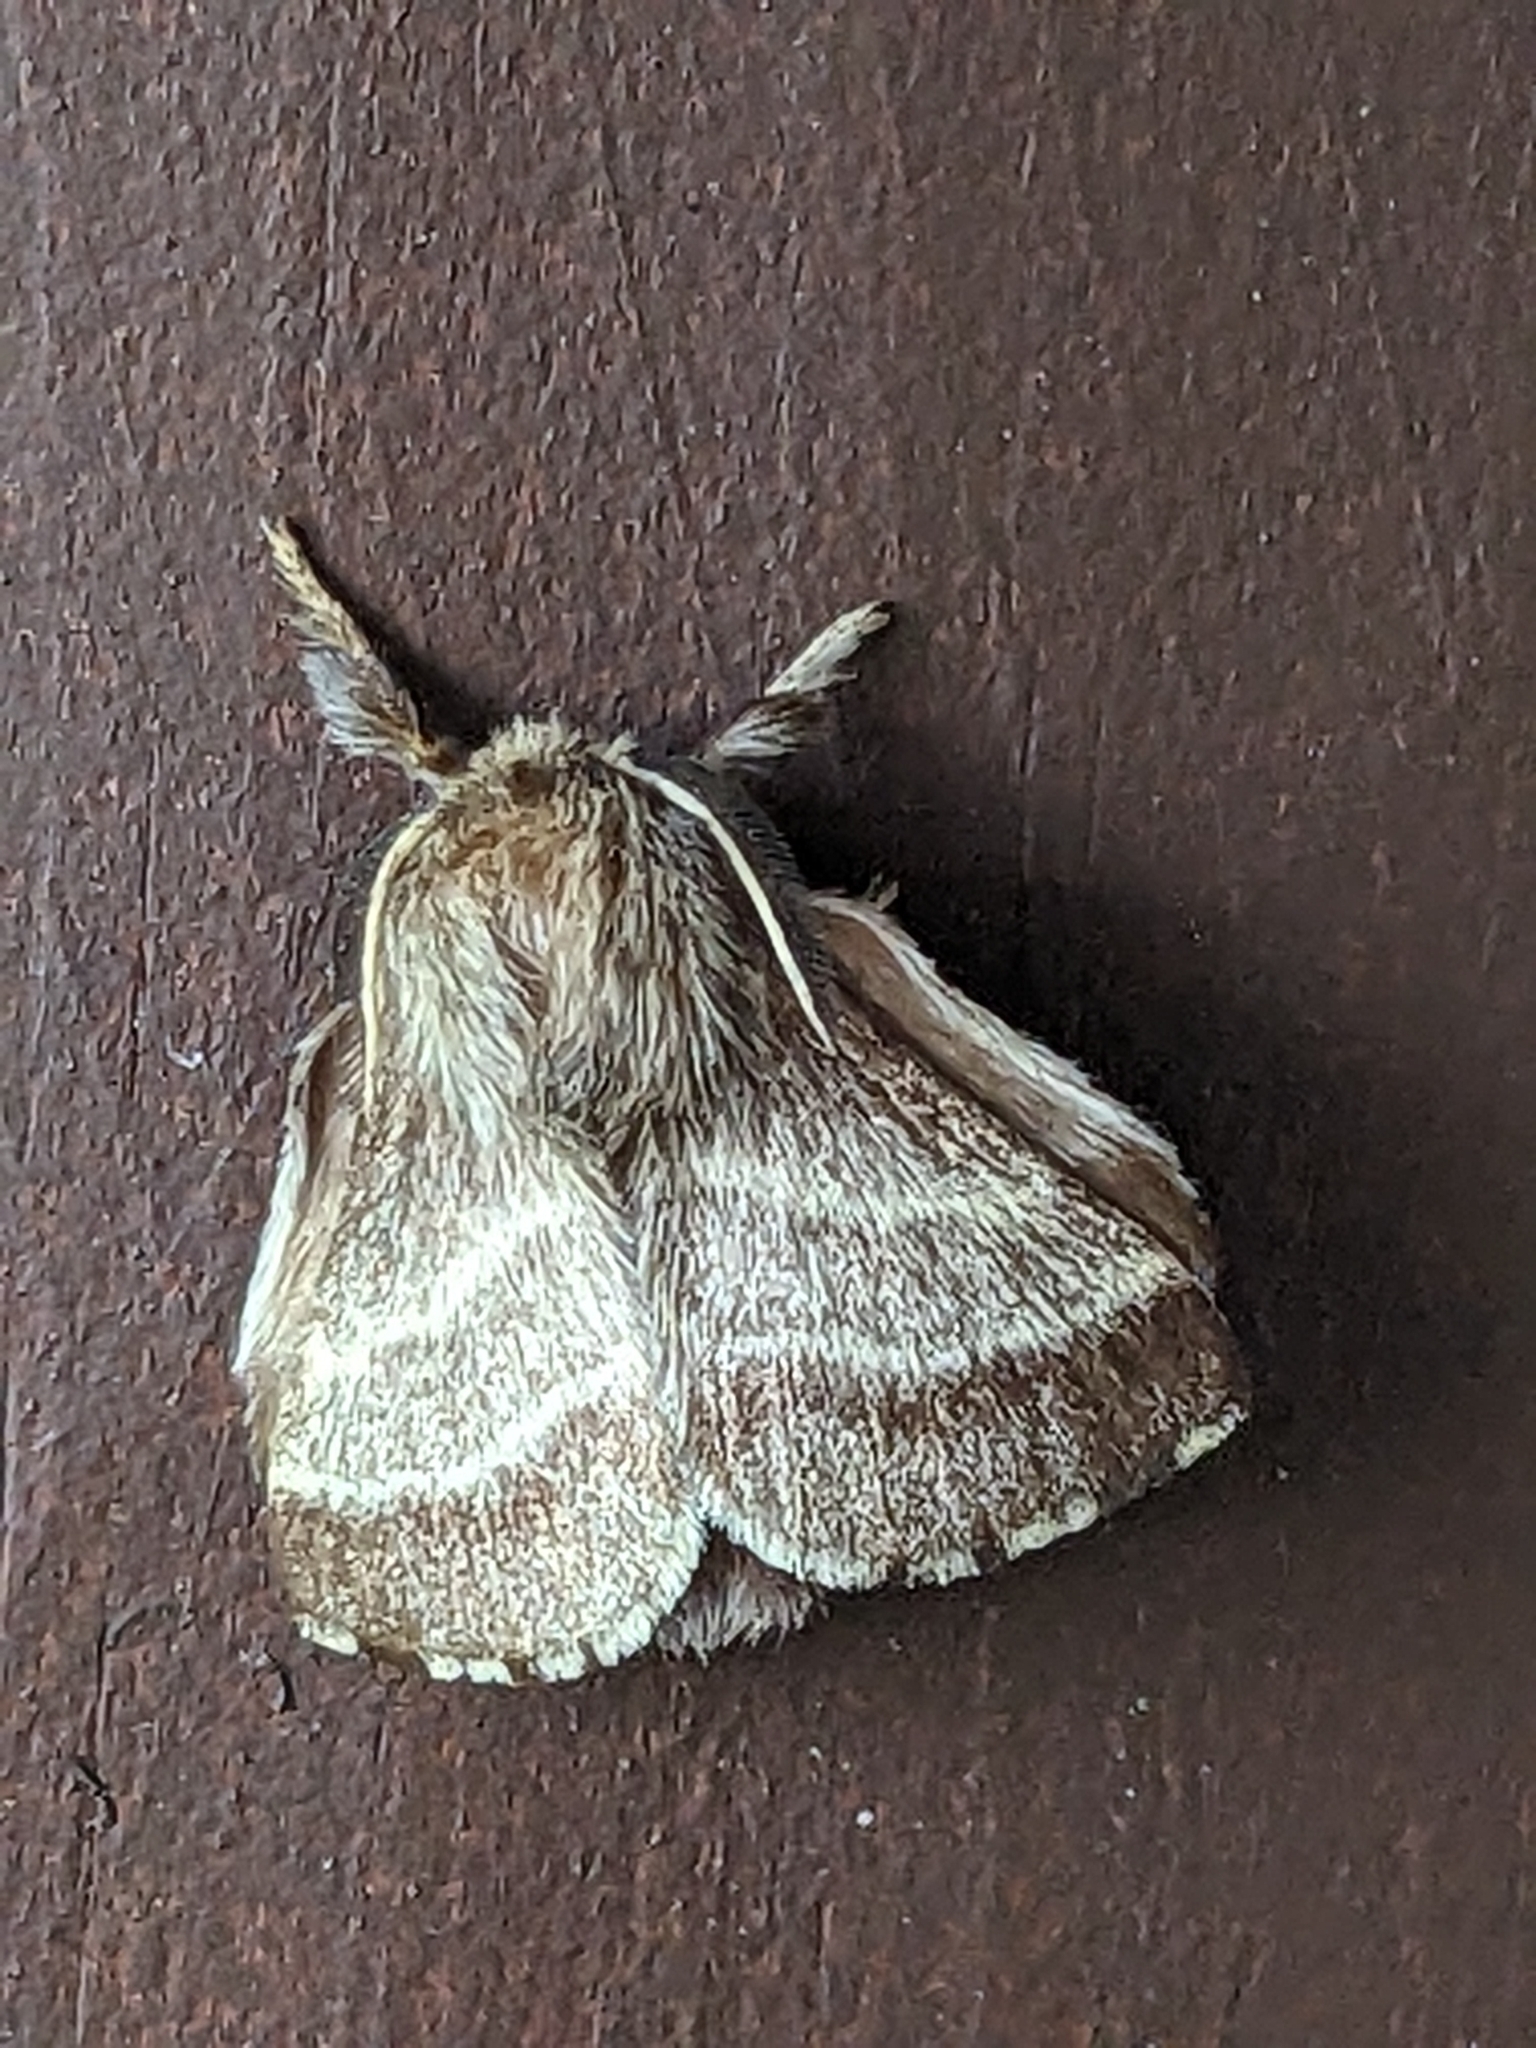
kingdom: Animalia
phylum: Arthropoda
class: Insecta
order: Lepidoptera
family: Lasiocampidae
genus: Malacosoma
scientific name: Malacosoma americana
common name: Eastern tent caterpillar moth
